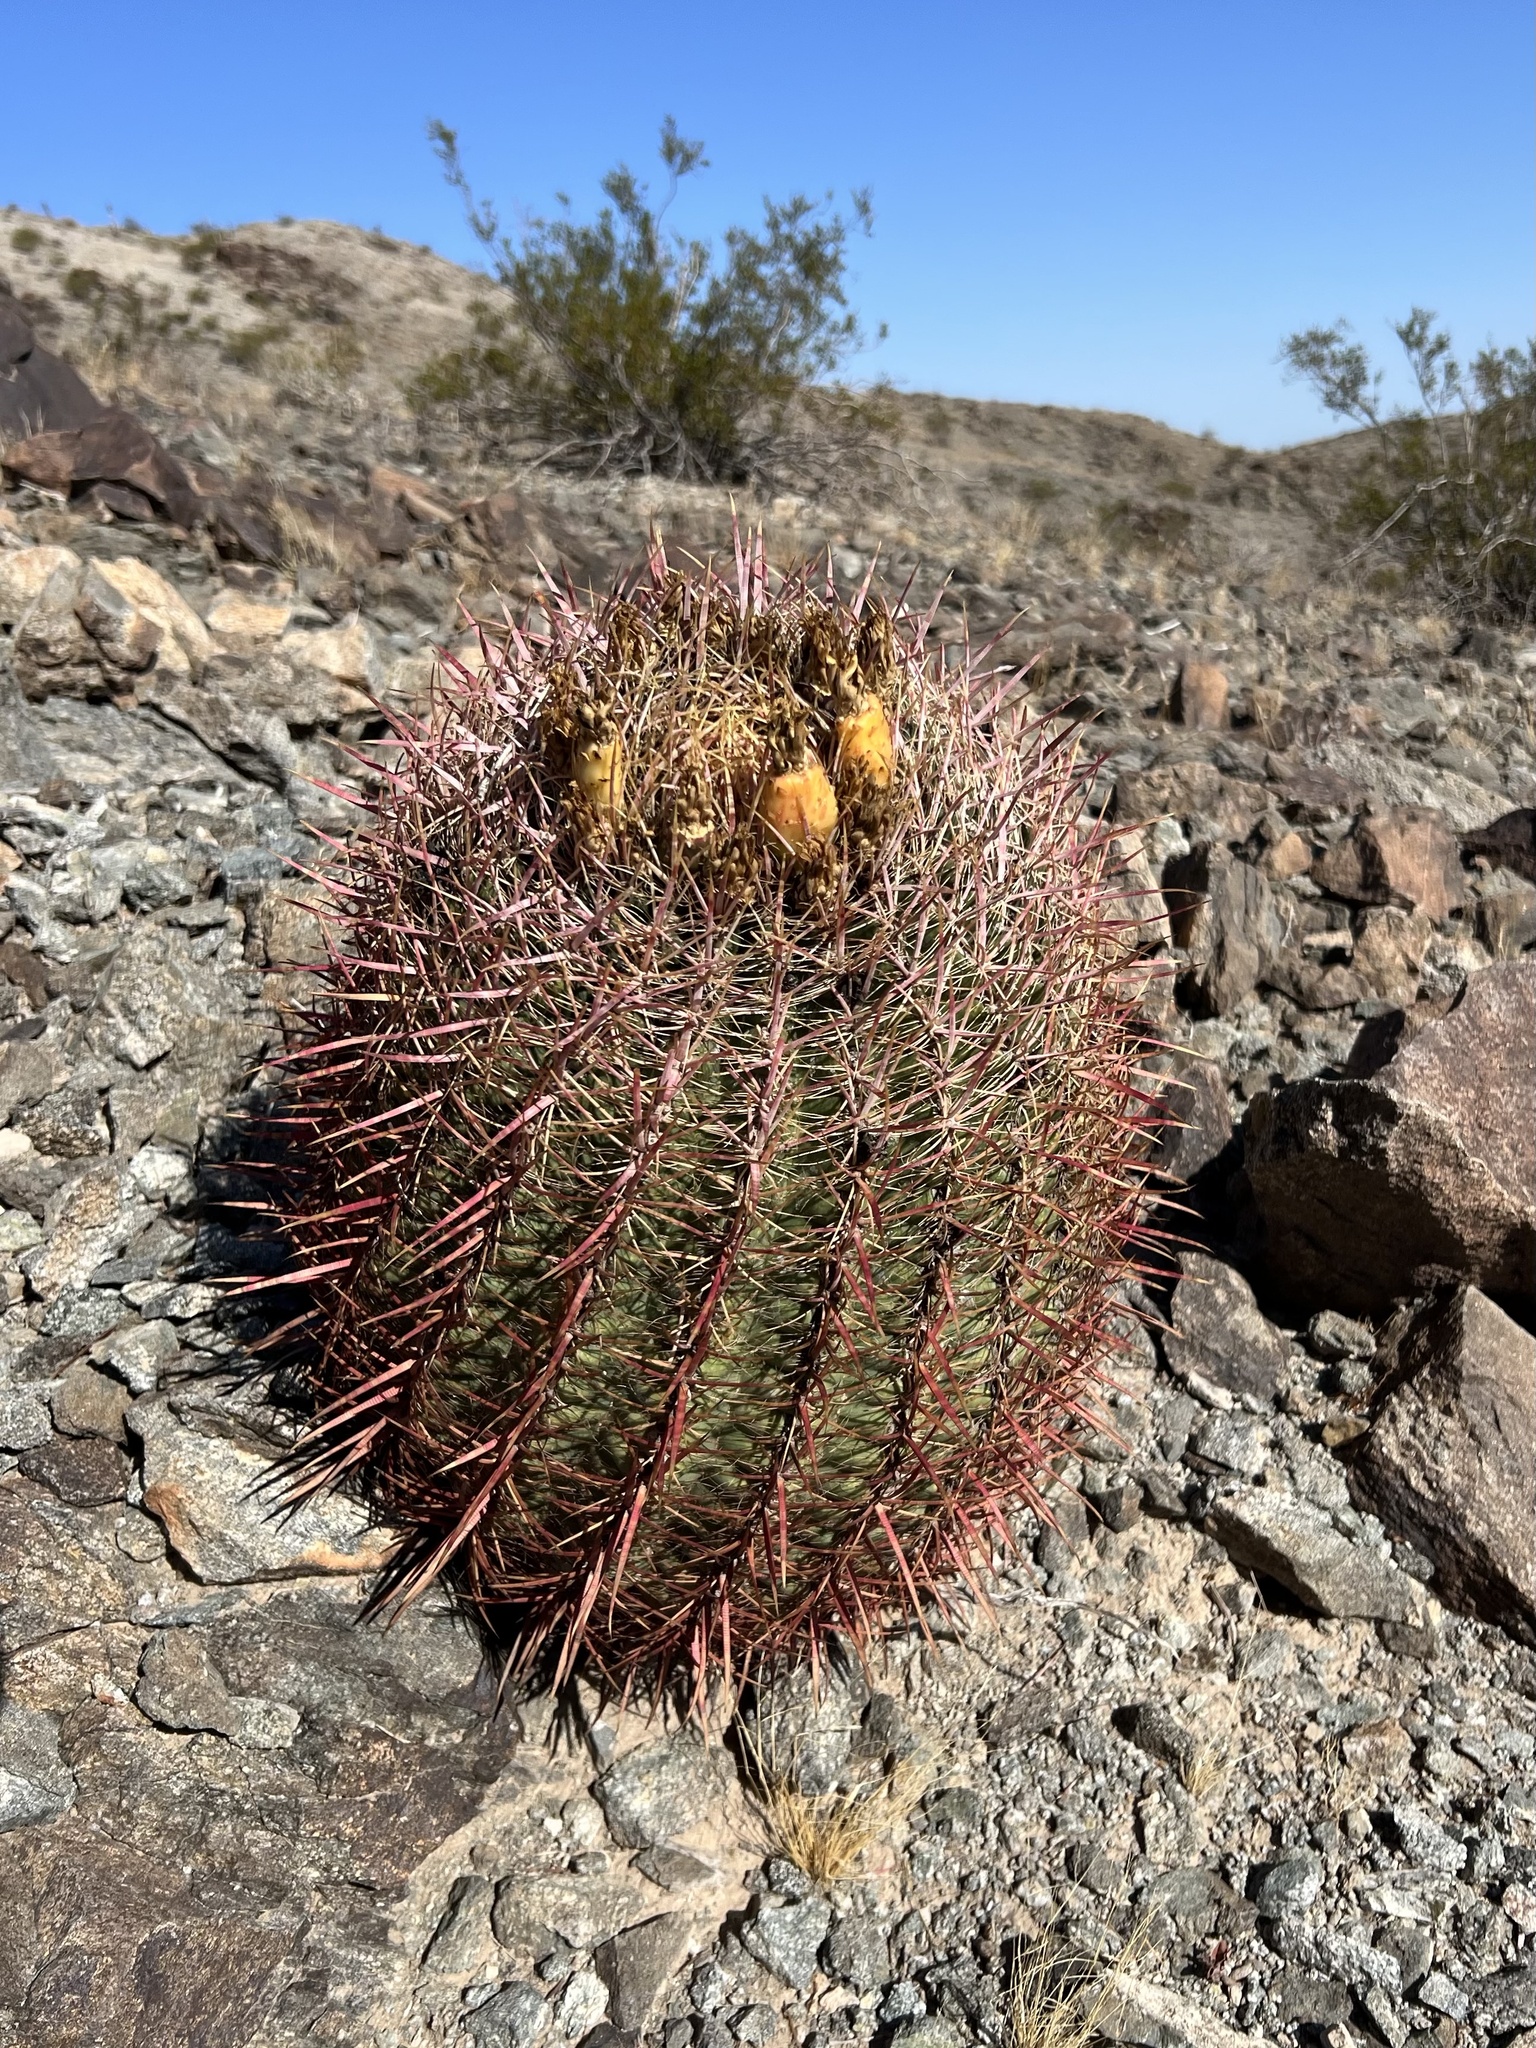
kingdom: Plantae
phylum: Tracheophyta
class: Magnoliopsida
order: Caryophyllales
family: Cactaceae
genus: Ferocactus
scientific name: Ferocactus cylindraceus
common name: California barrel cactus
